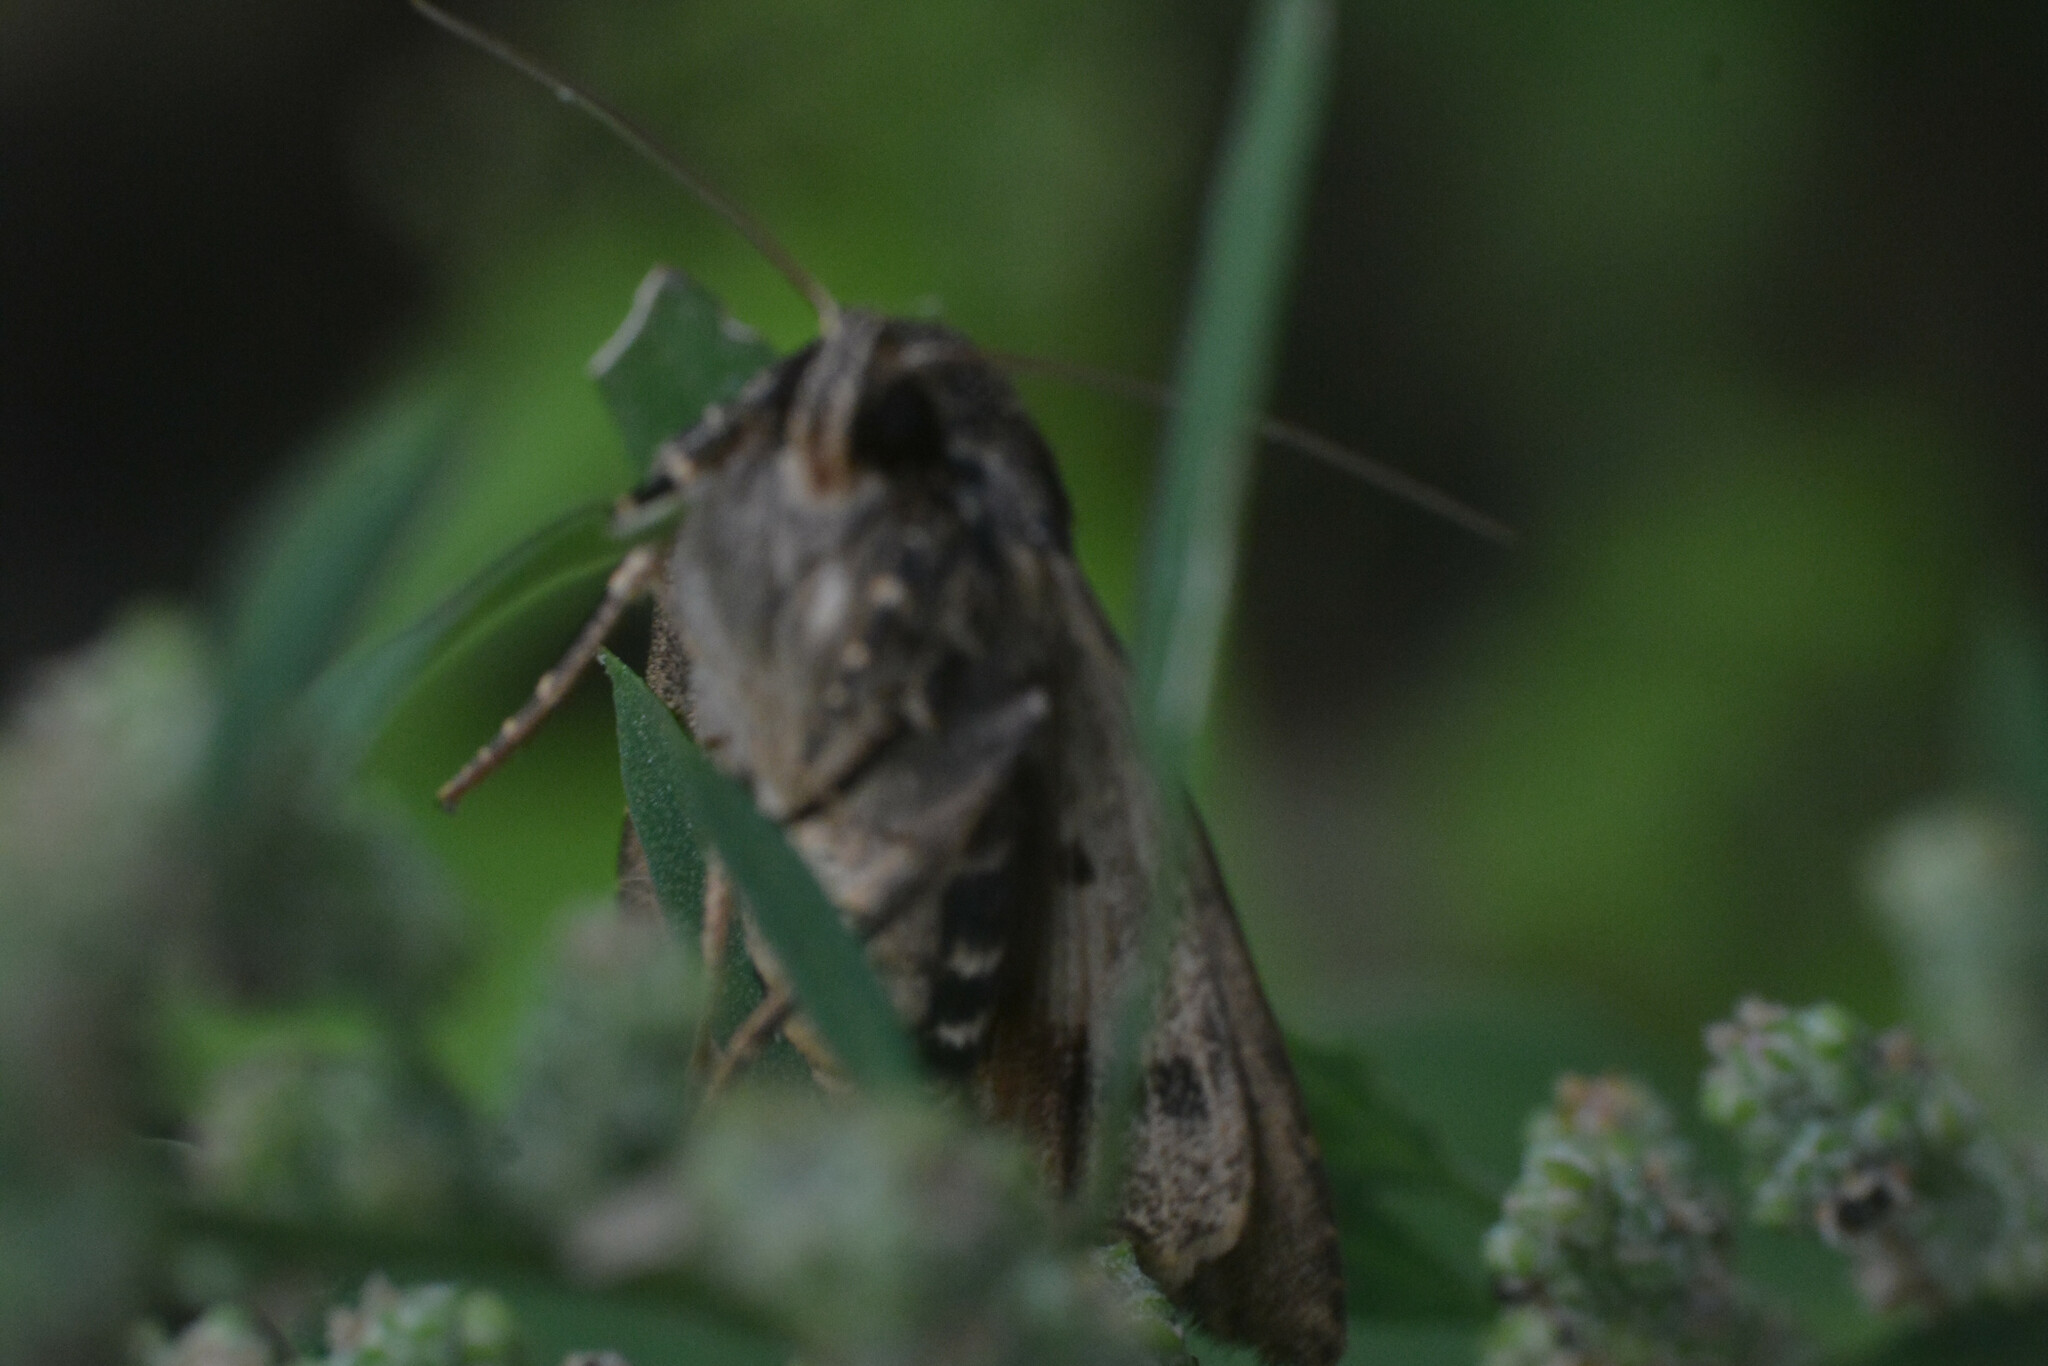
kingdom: Animalia
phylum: Arthropoda
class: Insecta
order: Lepidoptera
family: Noctuidae
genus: Amphipyra
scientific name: Amphipyra pyramidea
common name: Copper underwing
